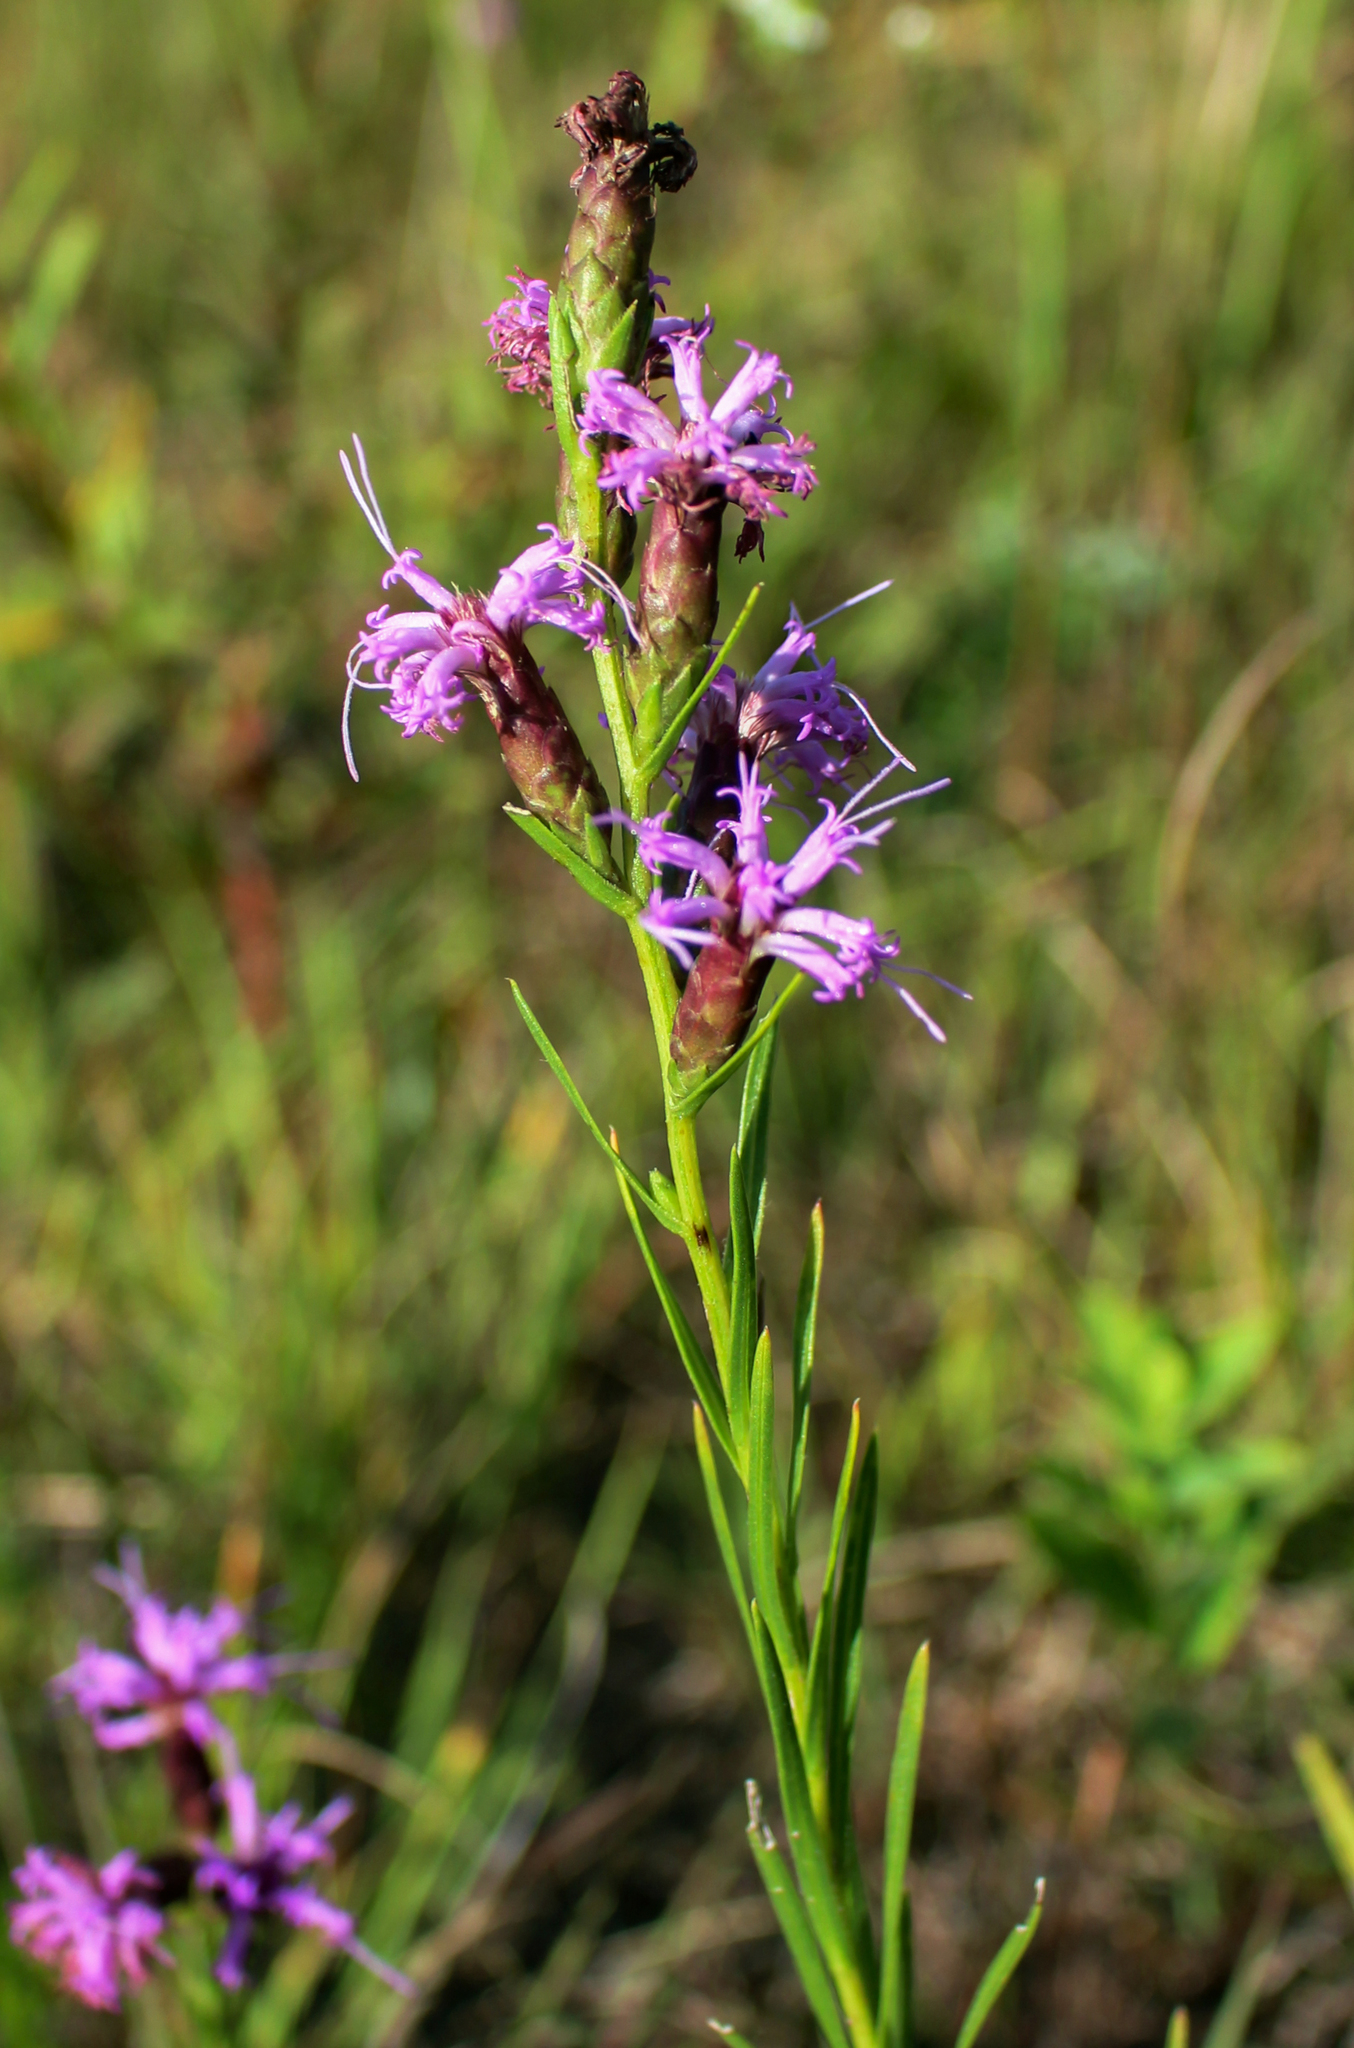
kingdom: Plantae
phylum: Tracheophyta
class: Magnoliopsida
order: Asterales
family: Asteraceae
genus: Liatris
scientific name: Liatris cylindracea
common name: Few-head blazingstar
